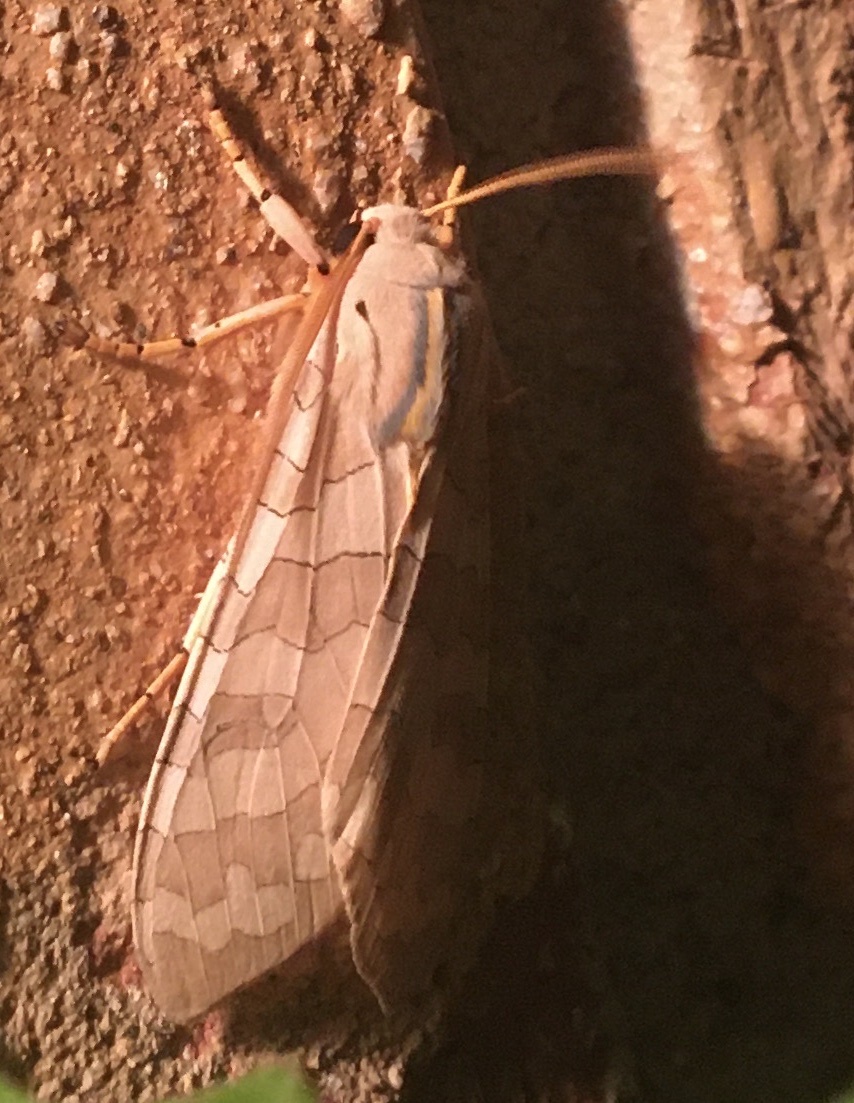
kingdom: Animalia
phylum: Arthropoda
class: Insecta
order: Lepidoptera
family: Erebidae
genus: Halysidota
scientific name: Halysidota
